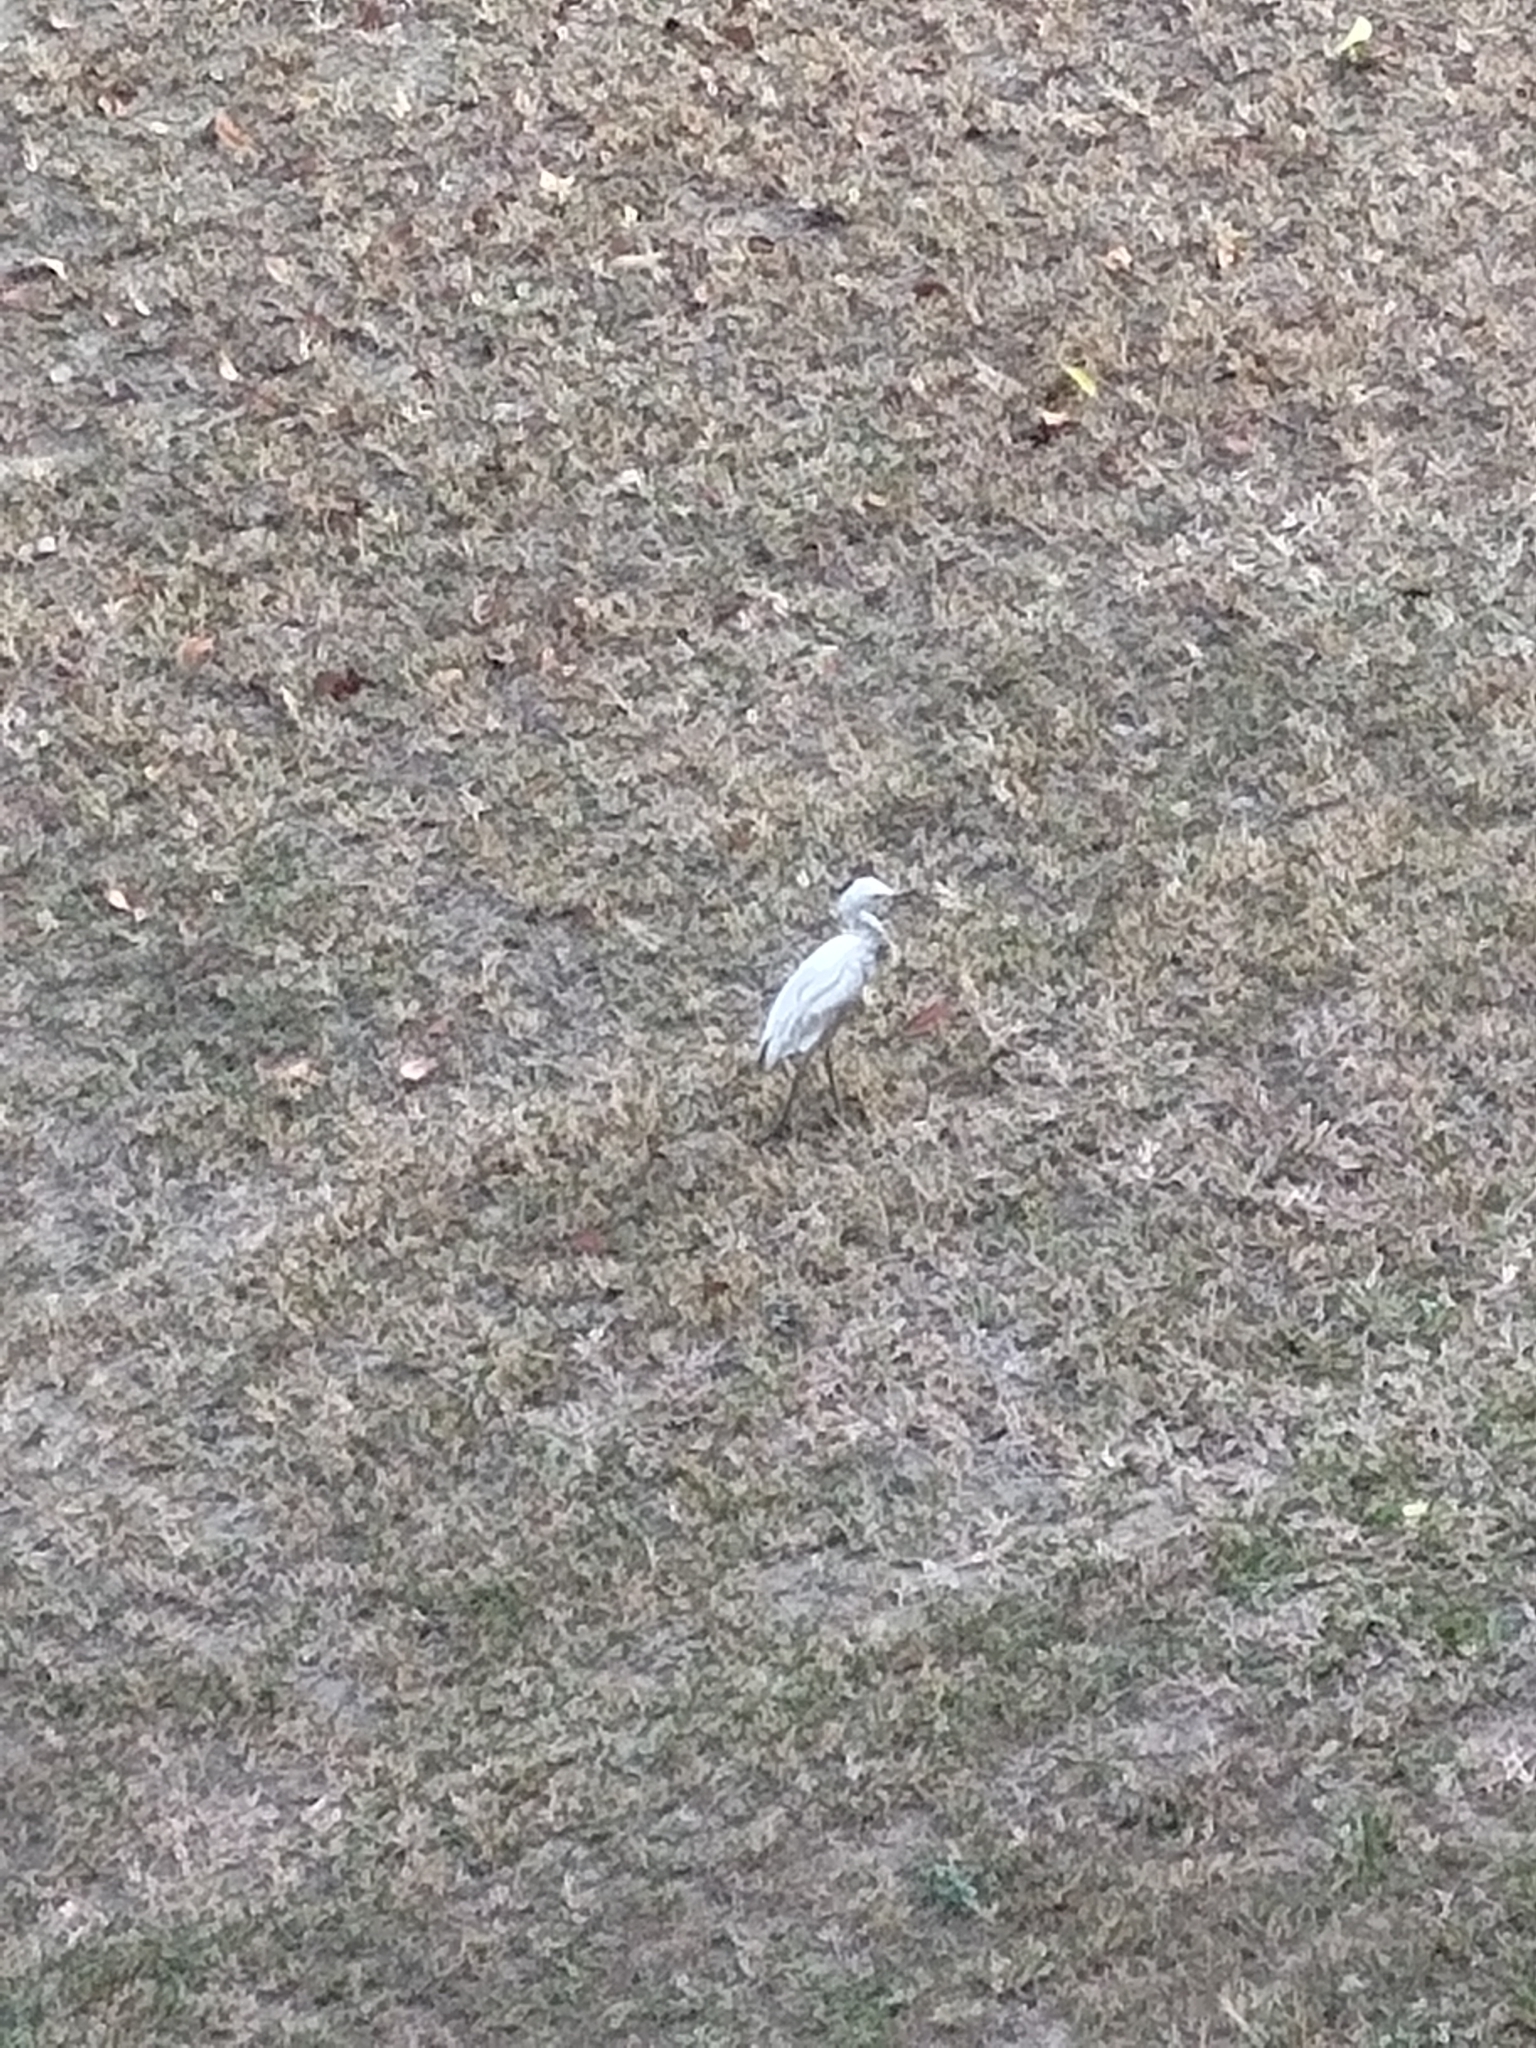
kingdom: Animalia
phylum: Chordata
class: Aves
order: Pelecaniformes
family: Ardeidae
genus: Egretta
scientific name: Egretta garzetta
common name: Little egret
